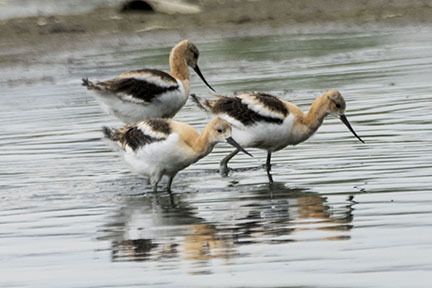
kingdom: Animalia
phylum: Chordata
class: Aves
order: Charadriiformes
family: Recurvirostridae
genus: Recurvirostra
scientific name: Recurvirostra americana
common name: American avocet
